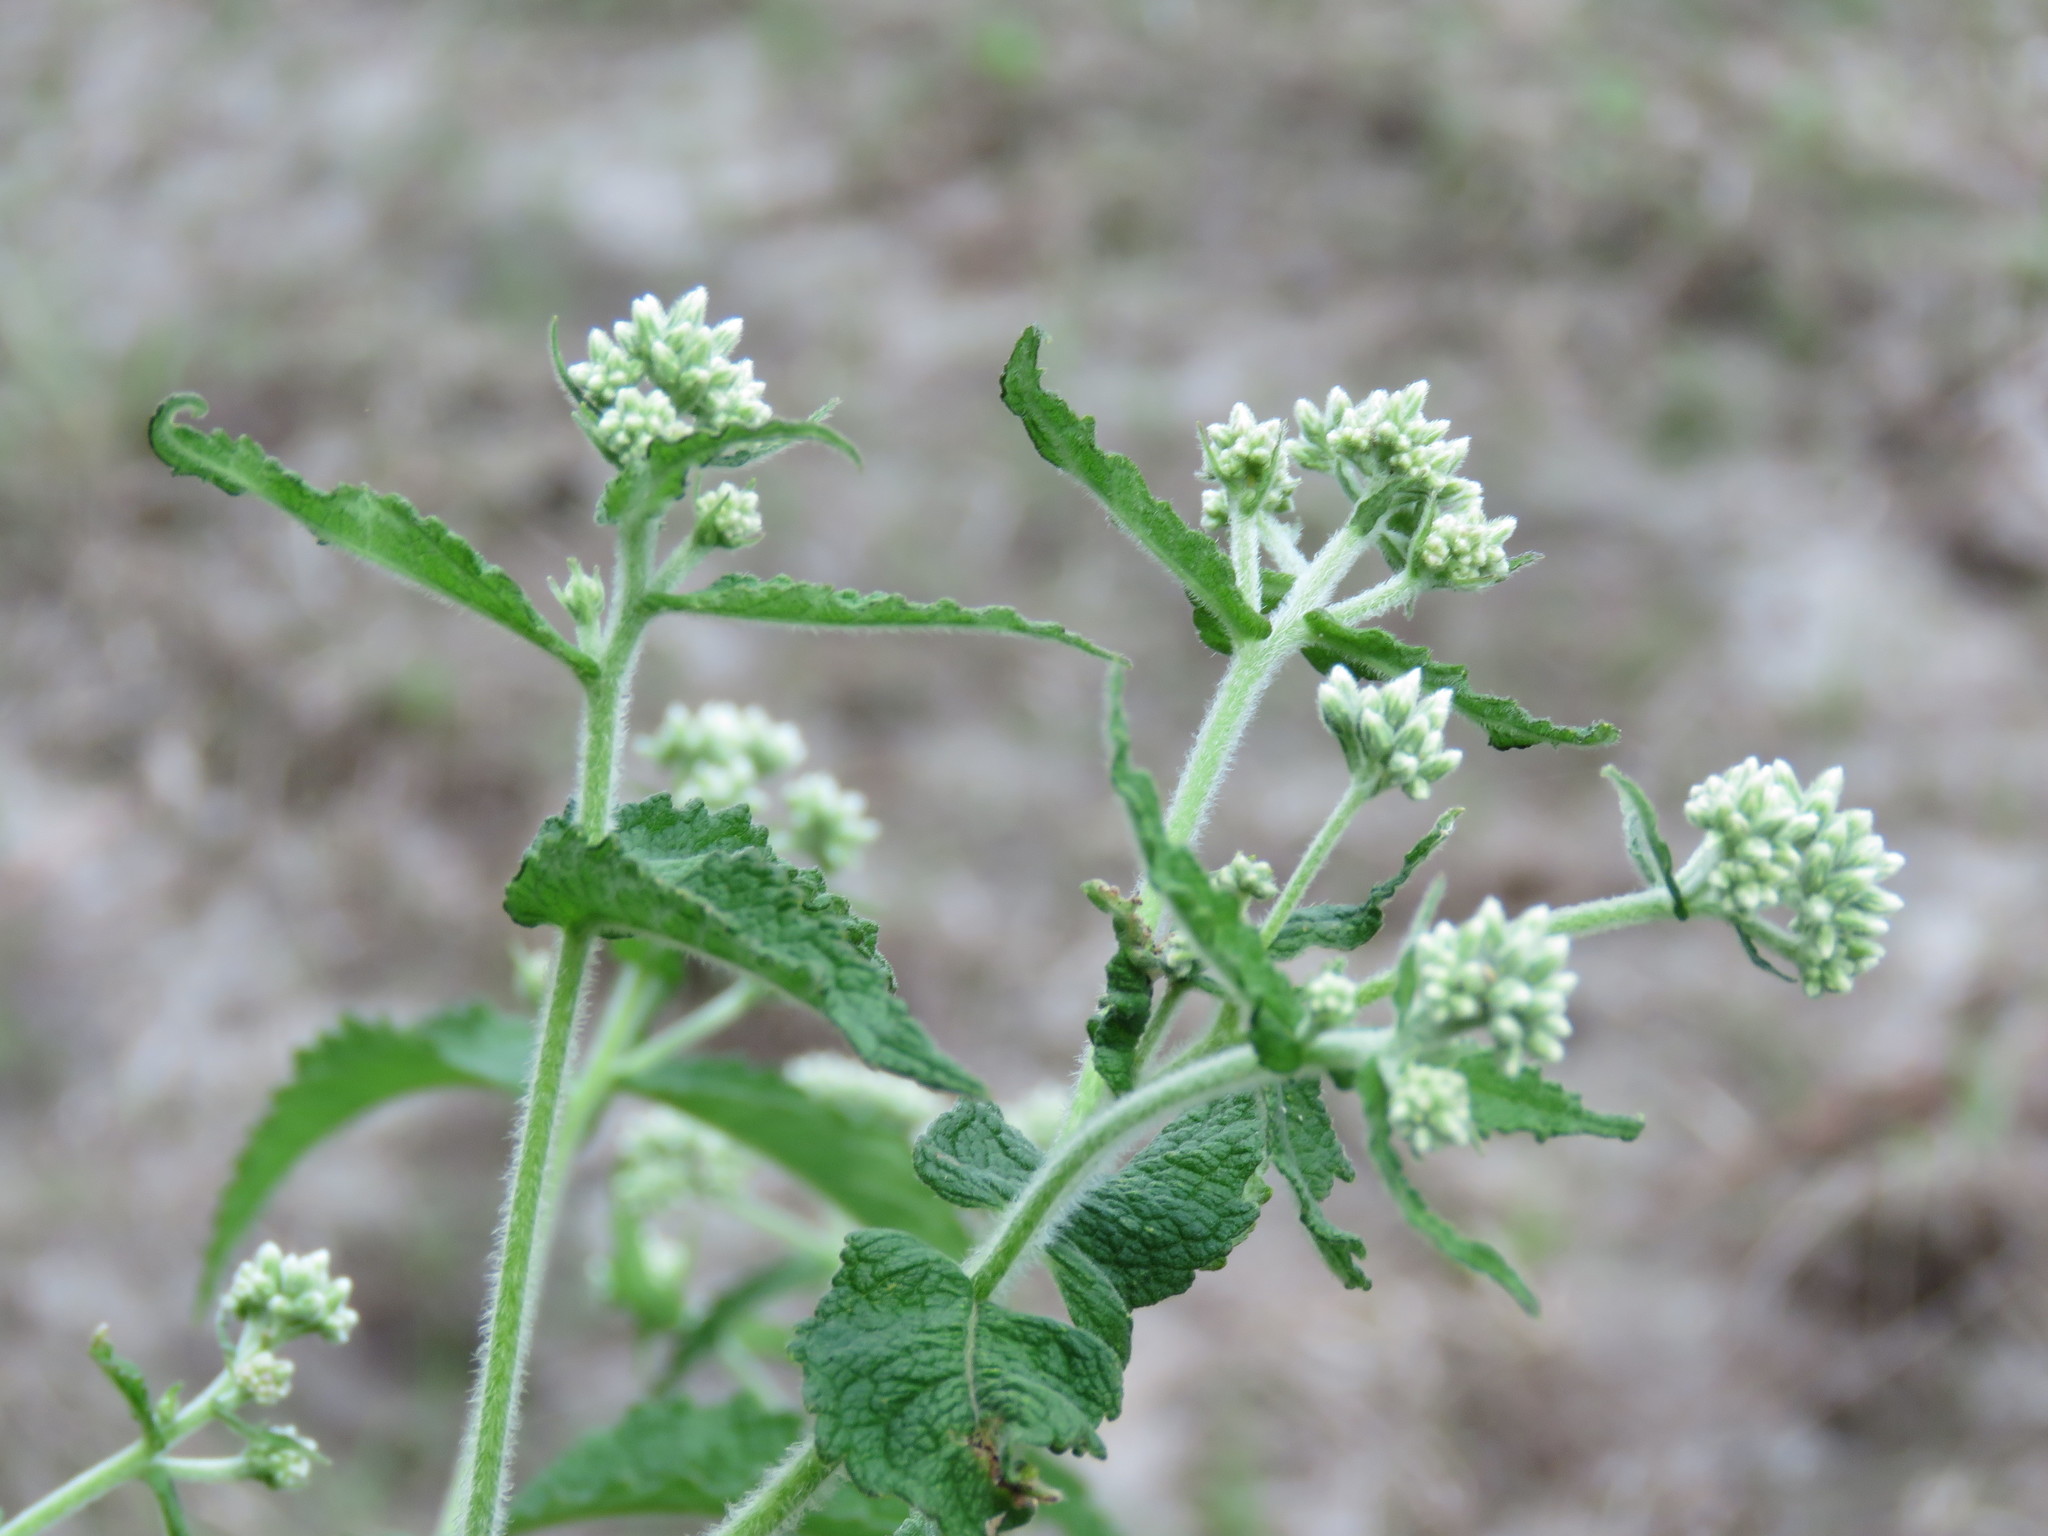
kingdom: Plantae
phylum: Tracheophyta
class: Magnoliopsida
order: Asterales
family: Asteraceae
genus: Eupatorium
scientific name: Eupatorium perfoliatum
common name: Boneset
